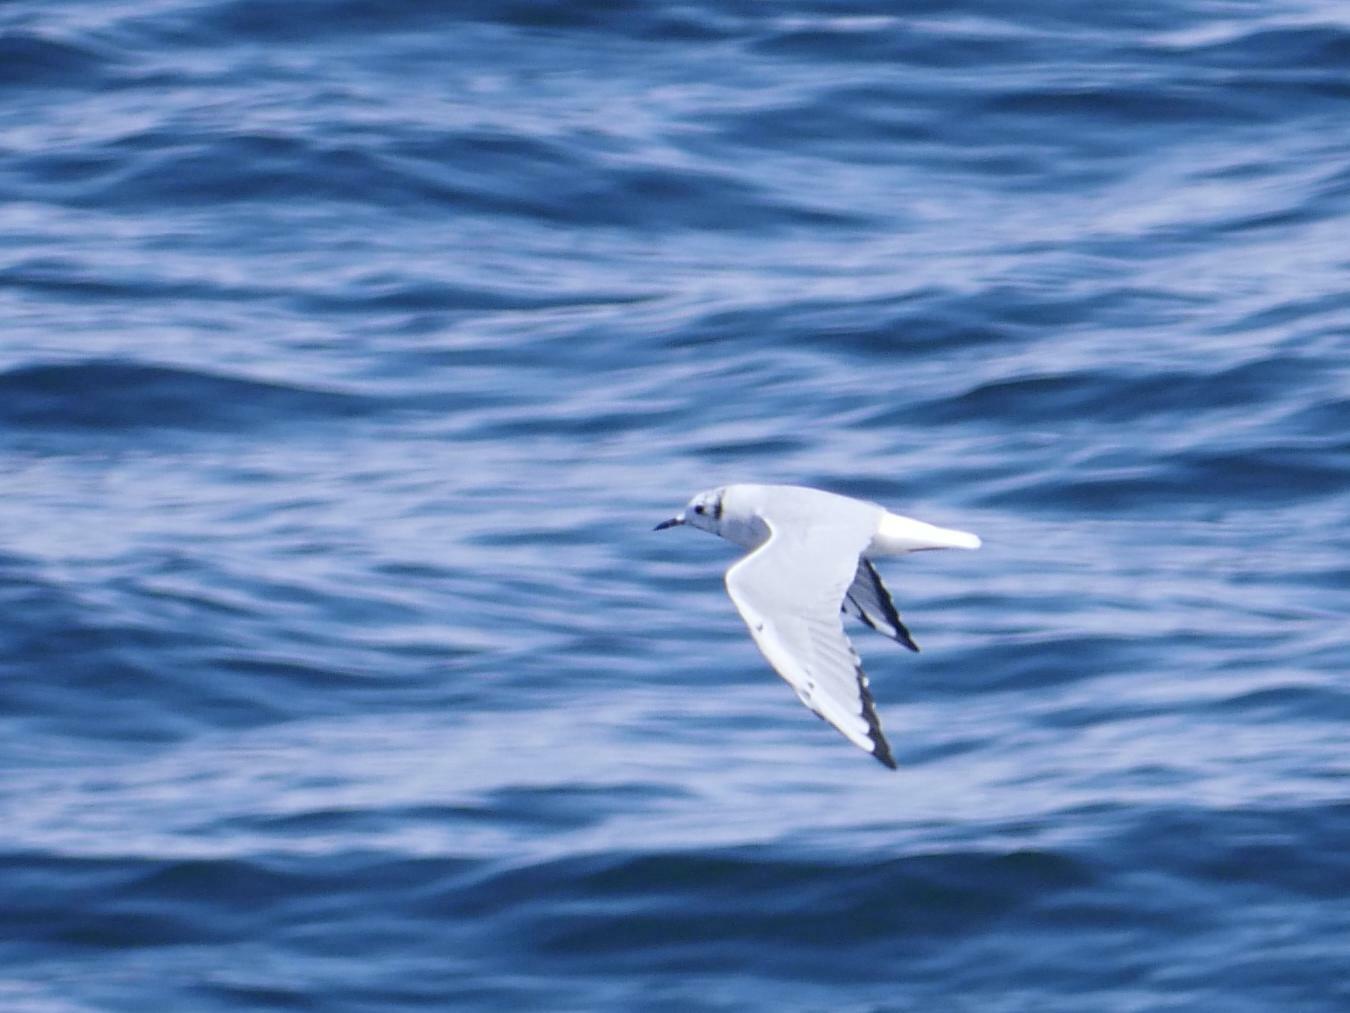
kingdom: Animalia
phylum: Chordata
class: Aves
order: Charadriiformes
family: Laridae
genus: Chroicocephalus
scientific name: Chroicocephalus philadelphia
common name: Bonaparte's gull
